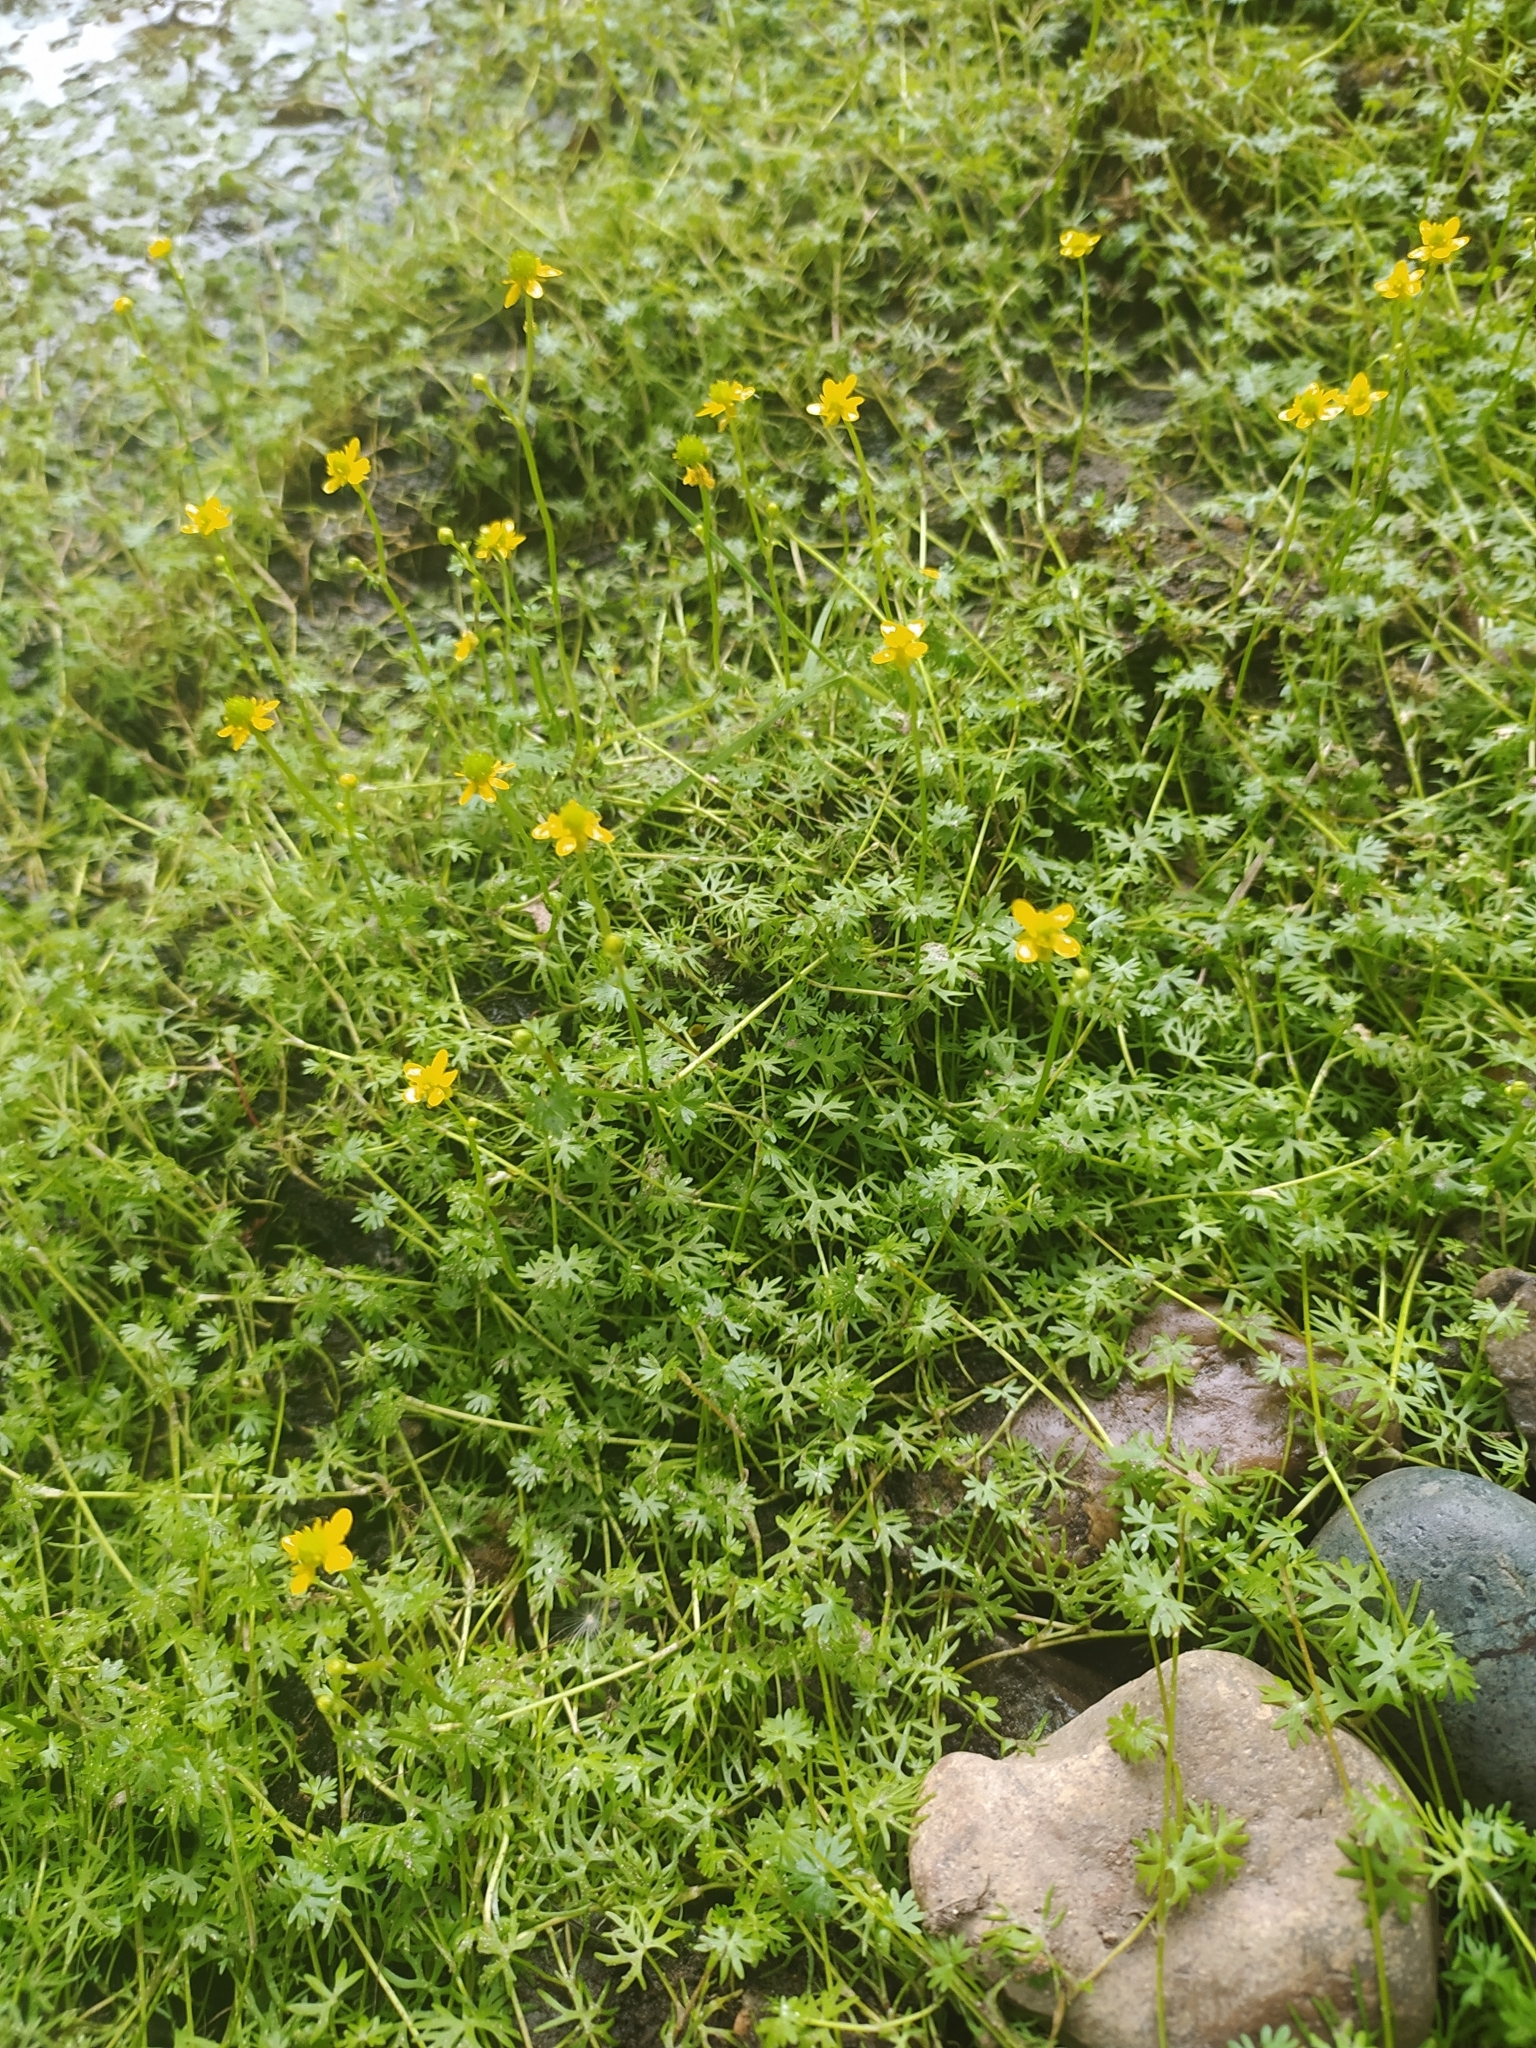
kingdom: Plantae
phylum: Tracheophyta
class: Magnoliopsida
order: Ranunculales
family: Ranunculaceae
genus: Ranunculus
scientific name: Ranunculus gmelinii
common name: Gmelin's buttercup
